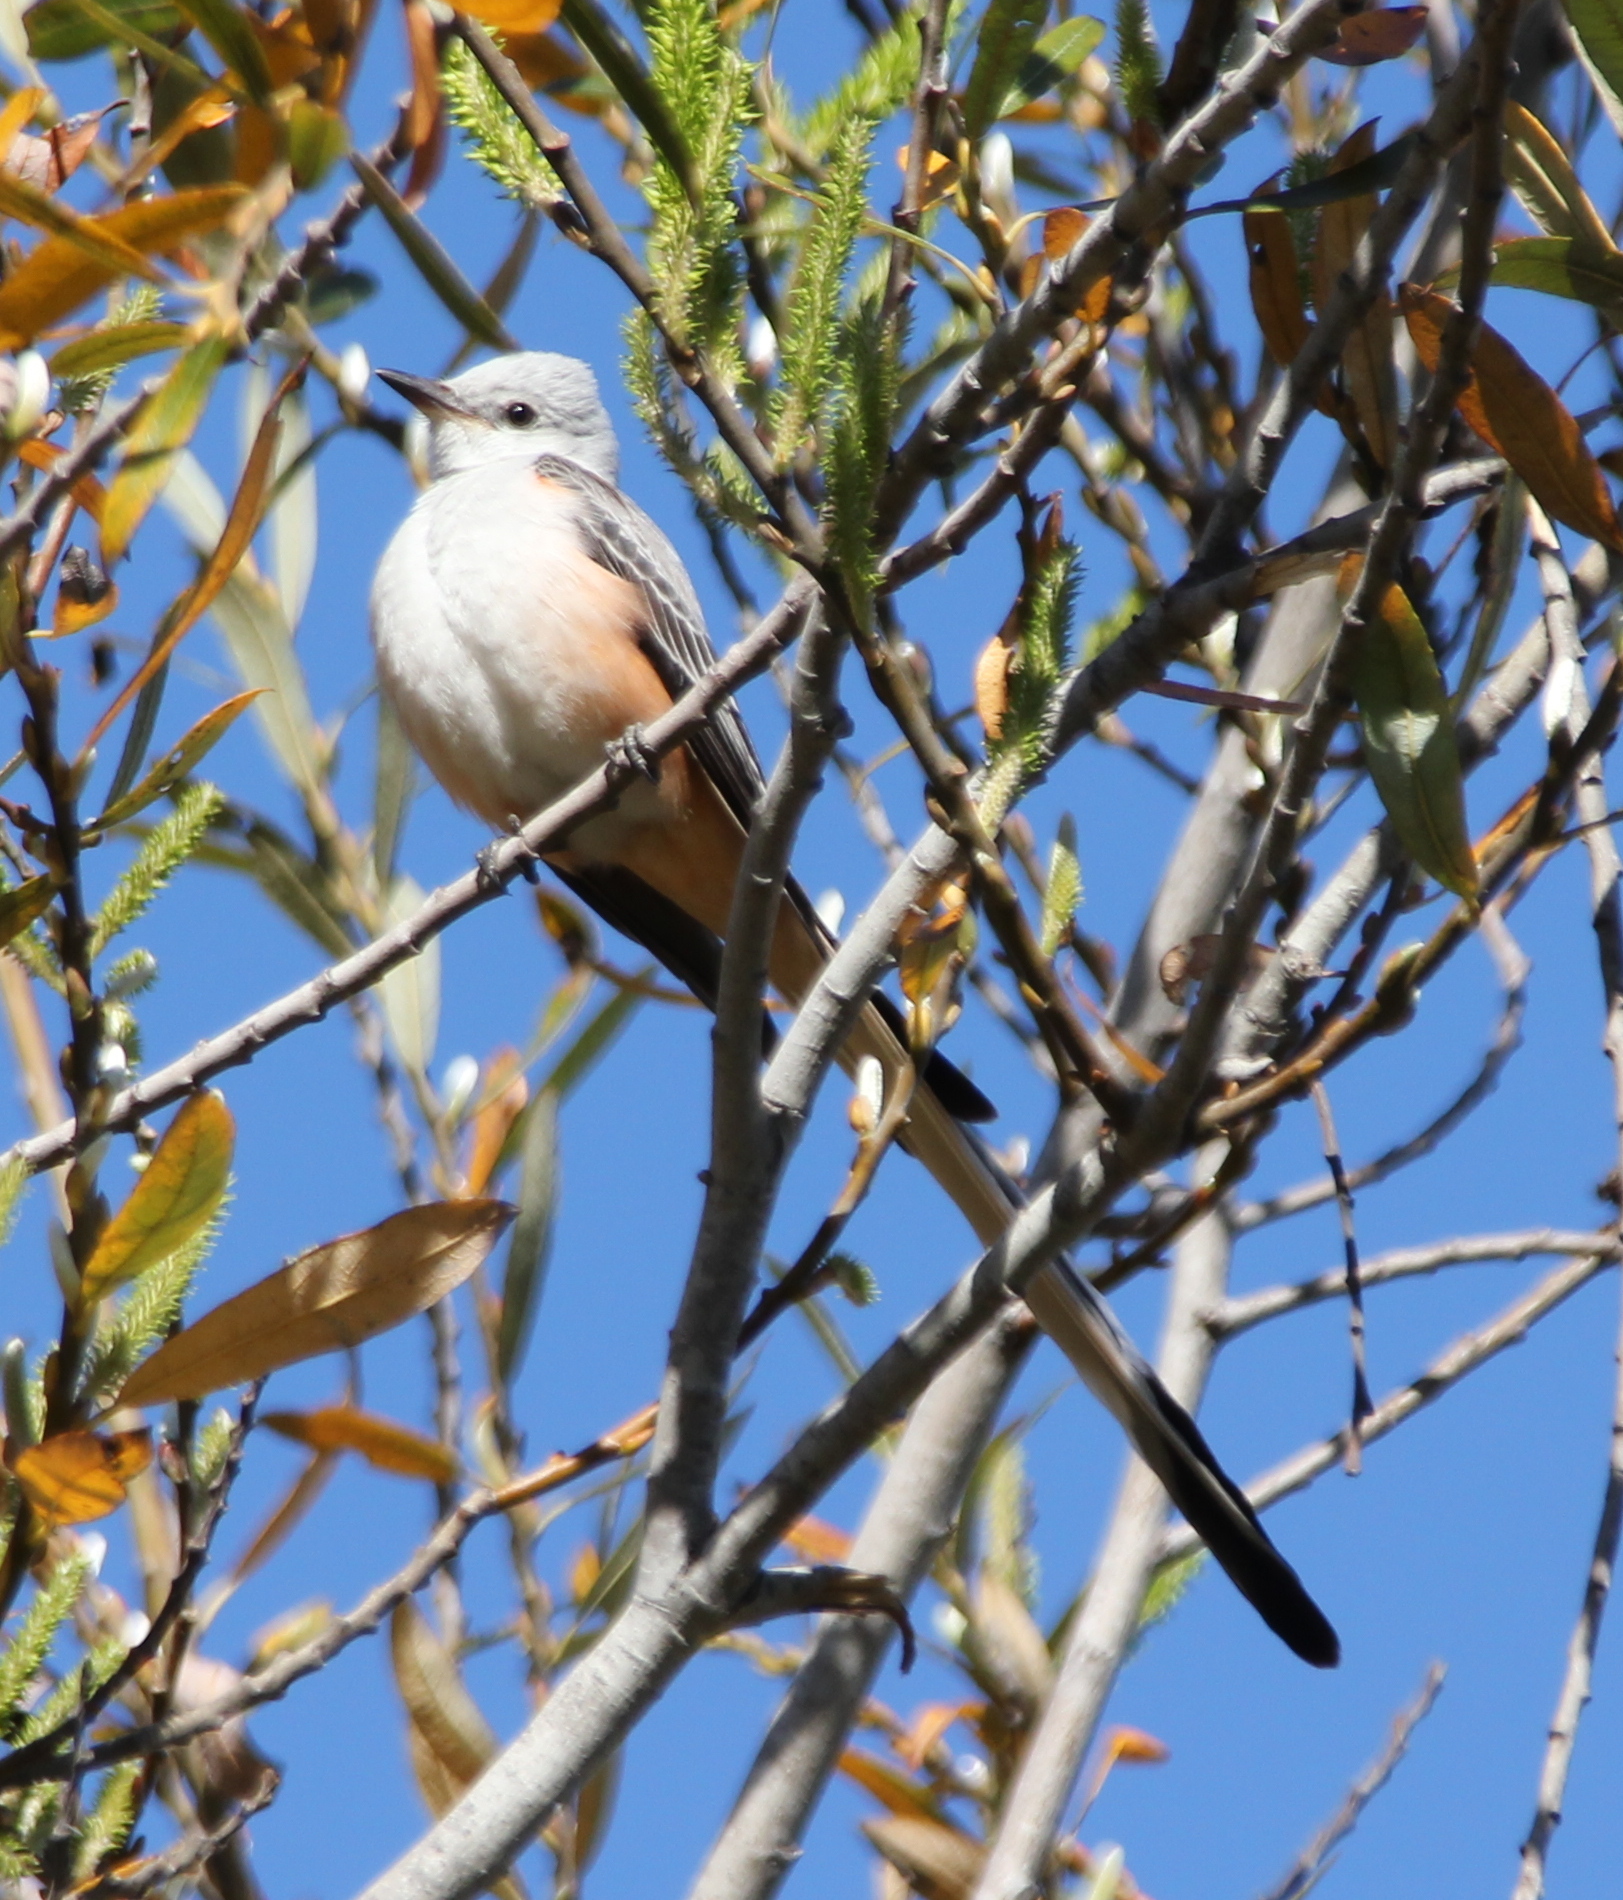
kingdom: Animalia
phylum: Chordata
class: Aves
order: Passeriformes
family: Tyrannidae
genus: Tyrannus
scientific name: Tyrannus forficatus
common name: Scissor-tailed flycatcher
